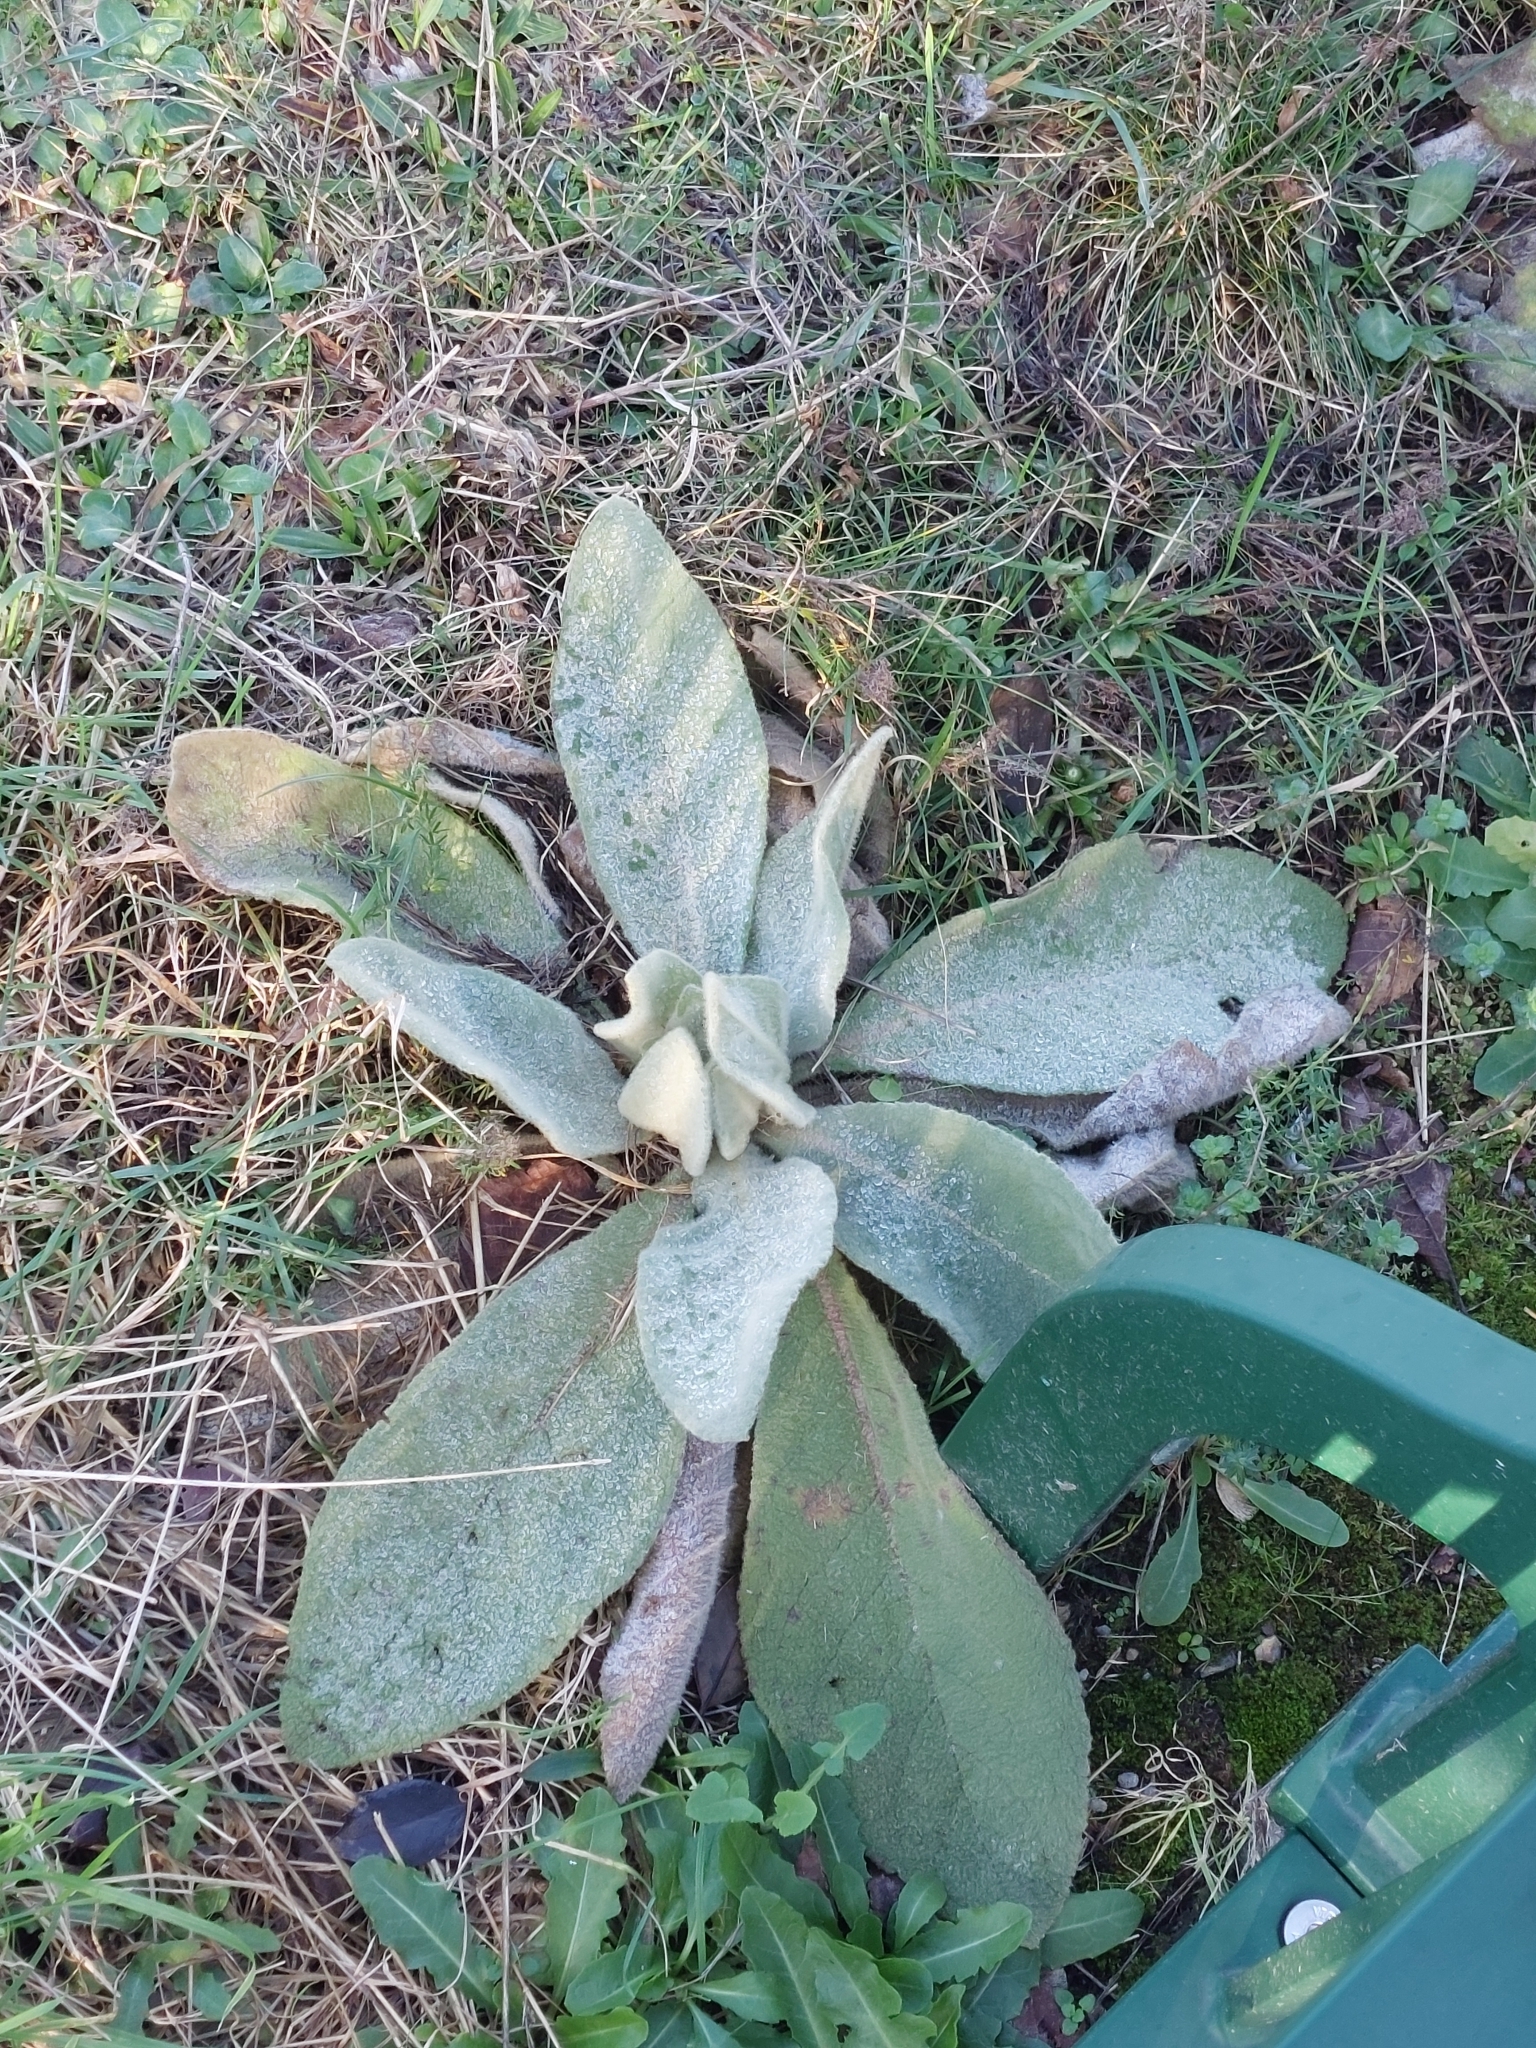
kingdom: Plantae
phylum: Tracheophyta
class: Magnoliopsida
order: Lamiales
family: Scrophulariaceae
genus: Verbascum
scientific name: Verbascum pulverulentum
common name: Broad-leaf mullein
